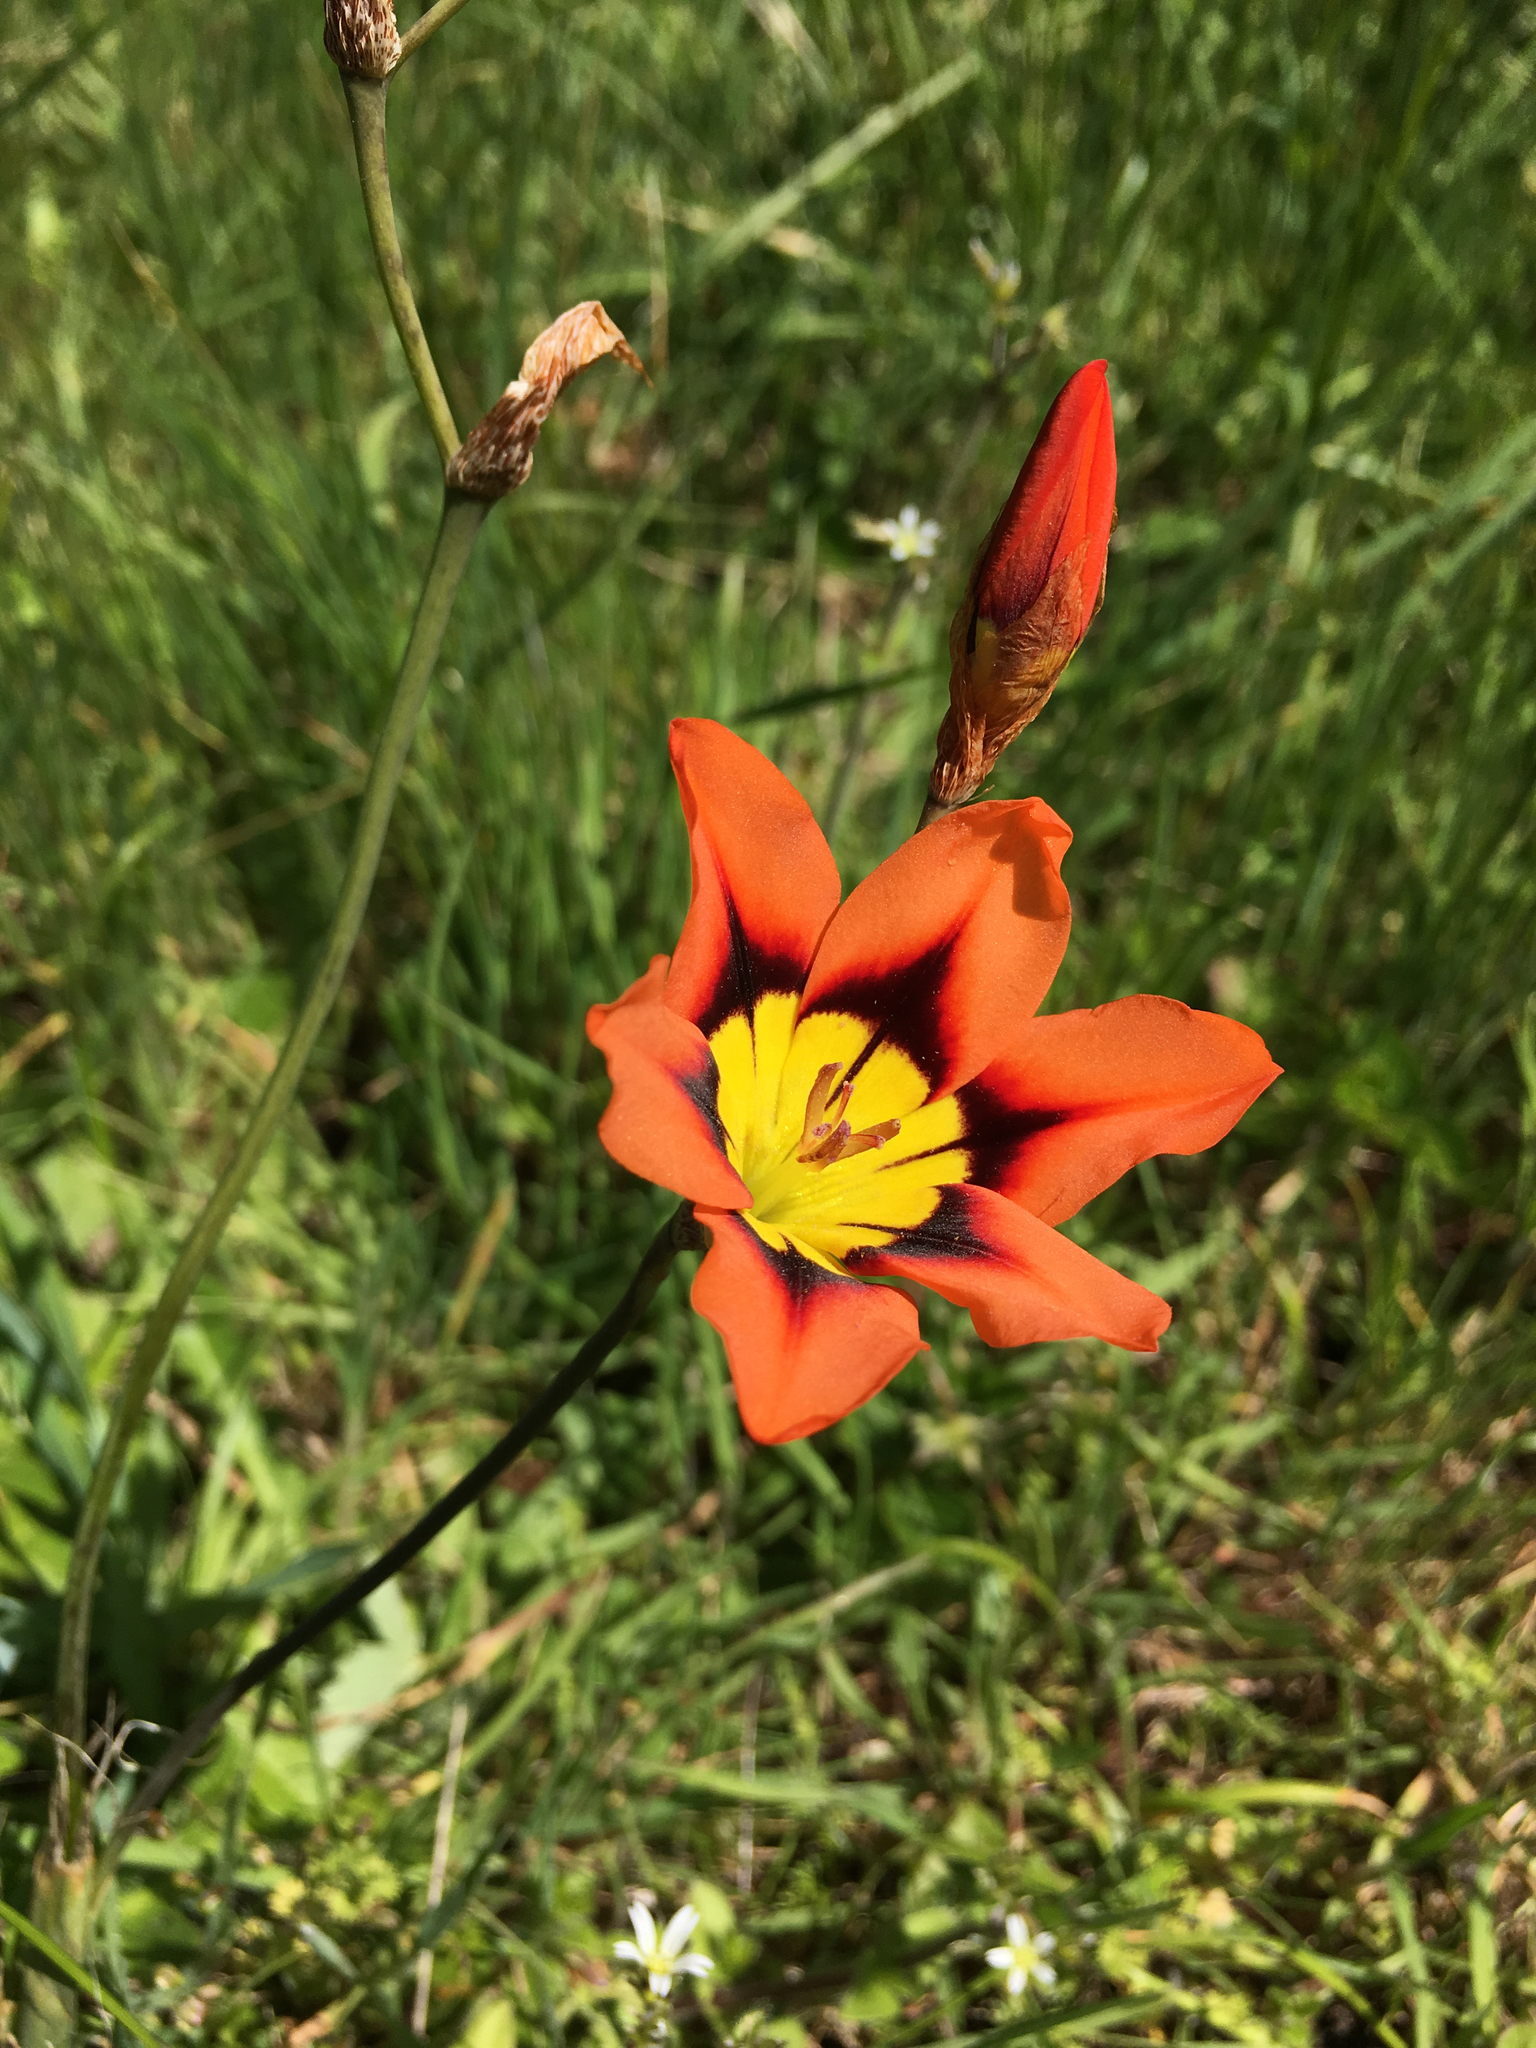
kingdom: Plantae
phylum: Tracheophyta
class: Liliopsida
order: Asparagales
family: Iridaceae
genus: Sparaxis
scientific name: Sparaxis tricolor
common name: Wandflower
